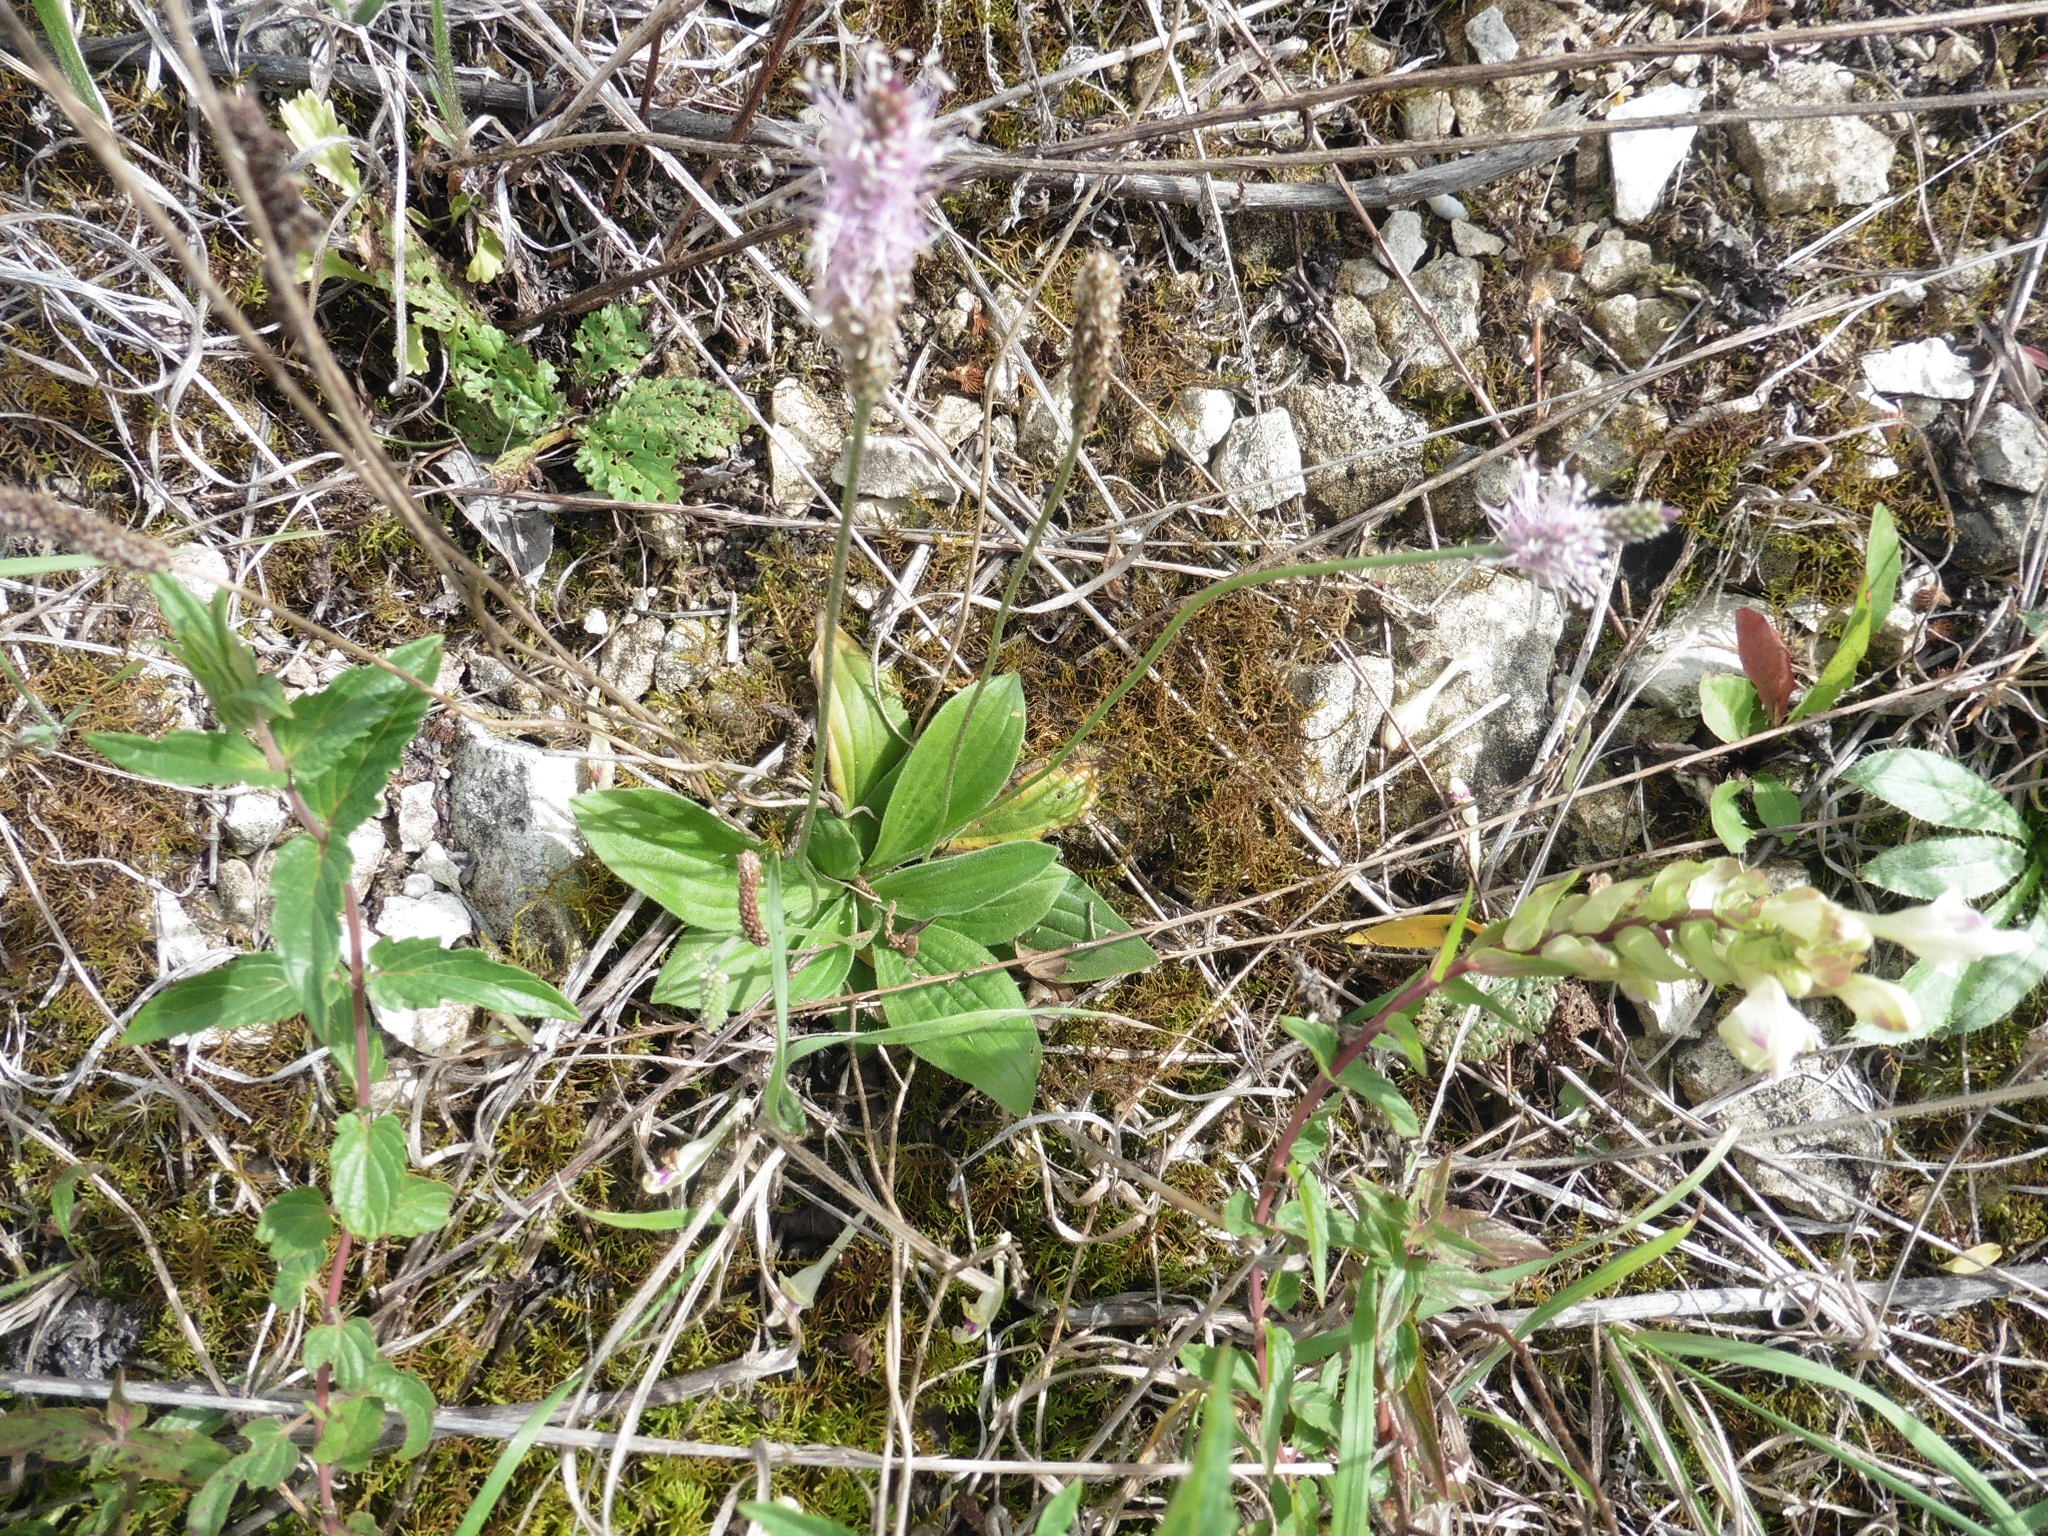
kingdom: Plantae
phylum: Tracheophyta
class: Magnoliopsida
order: Lamiales
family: Plantaginaceae
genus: Plantago
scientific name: Plantago media
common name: Hoary plantain
